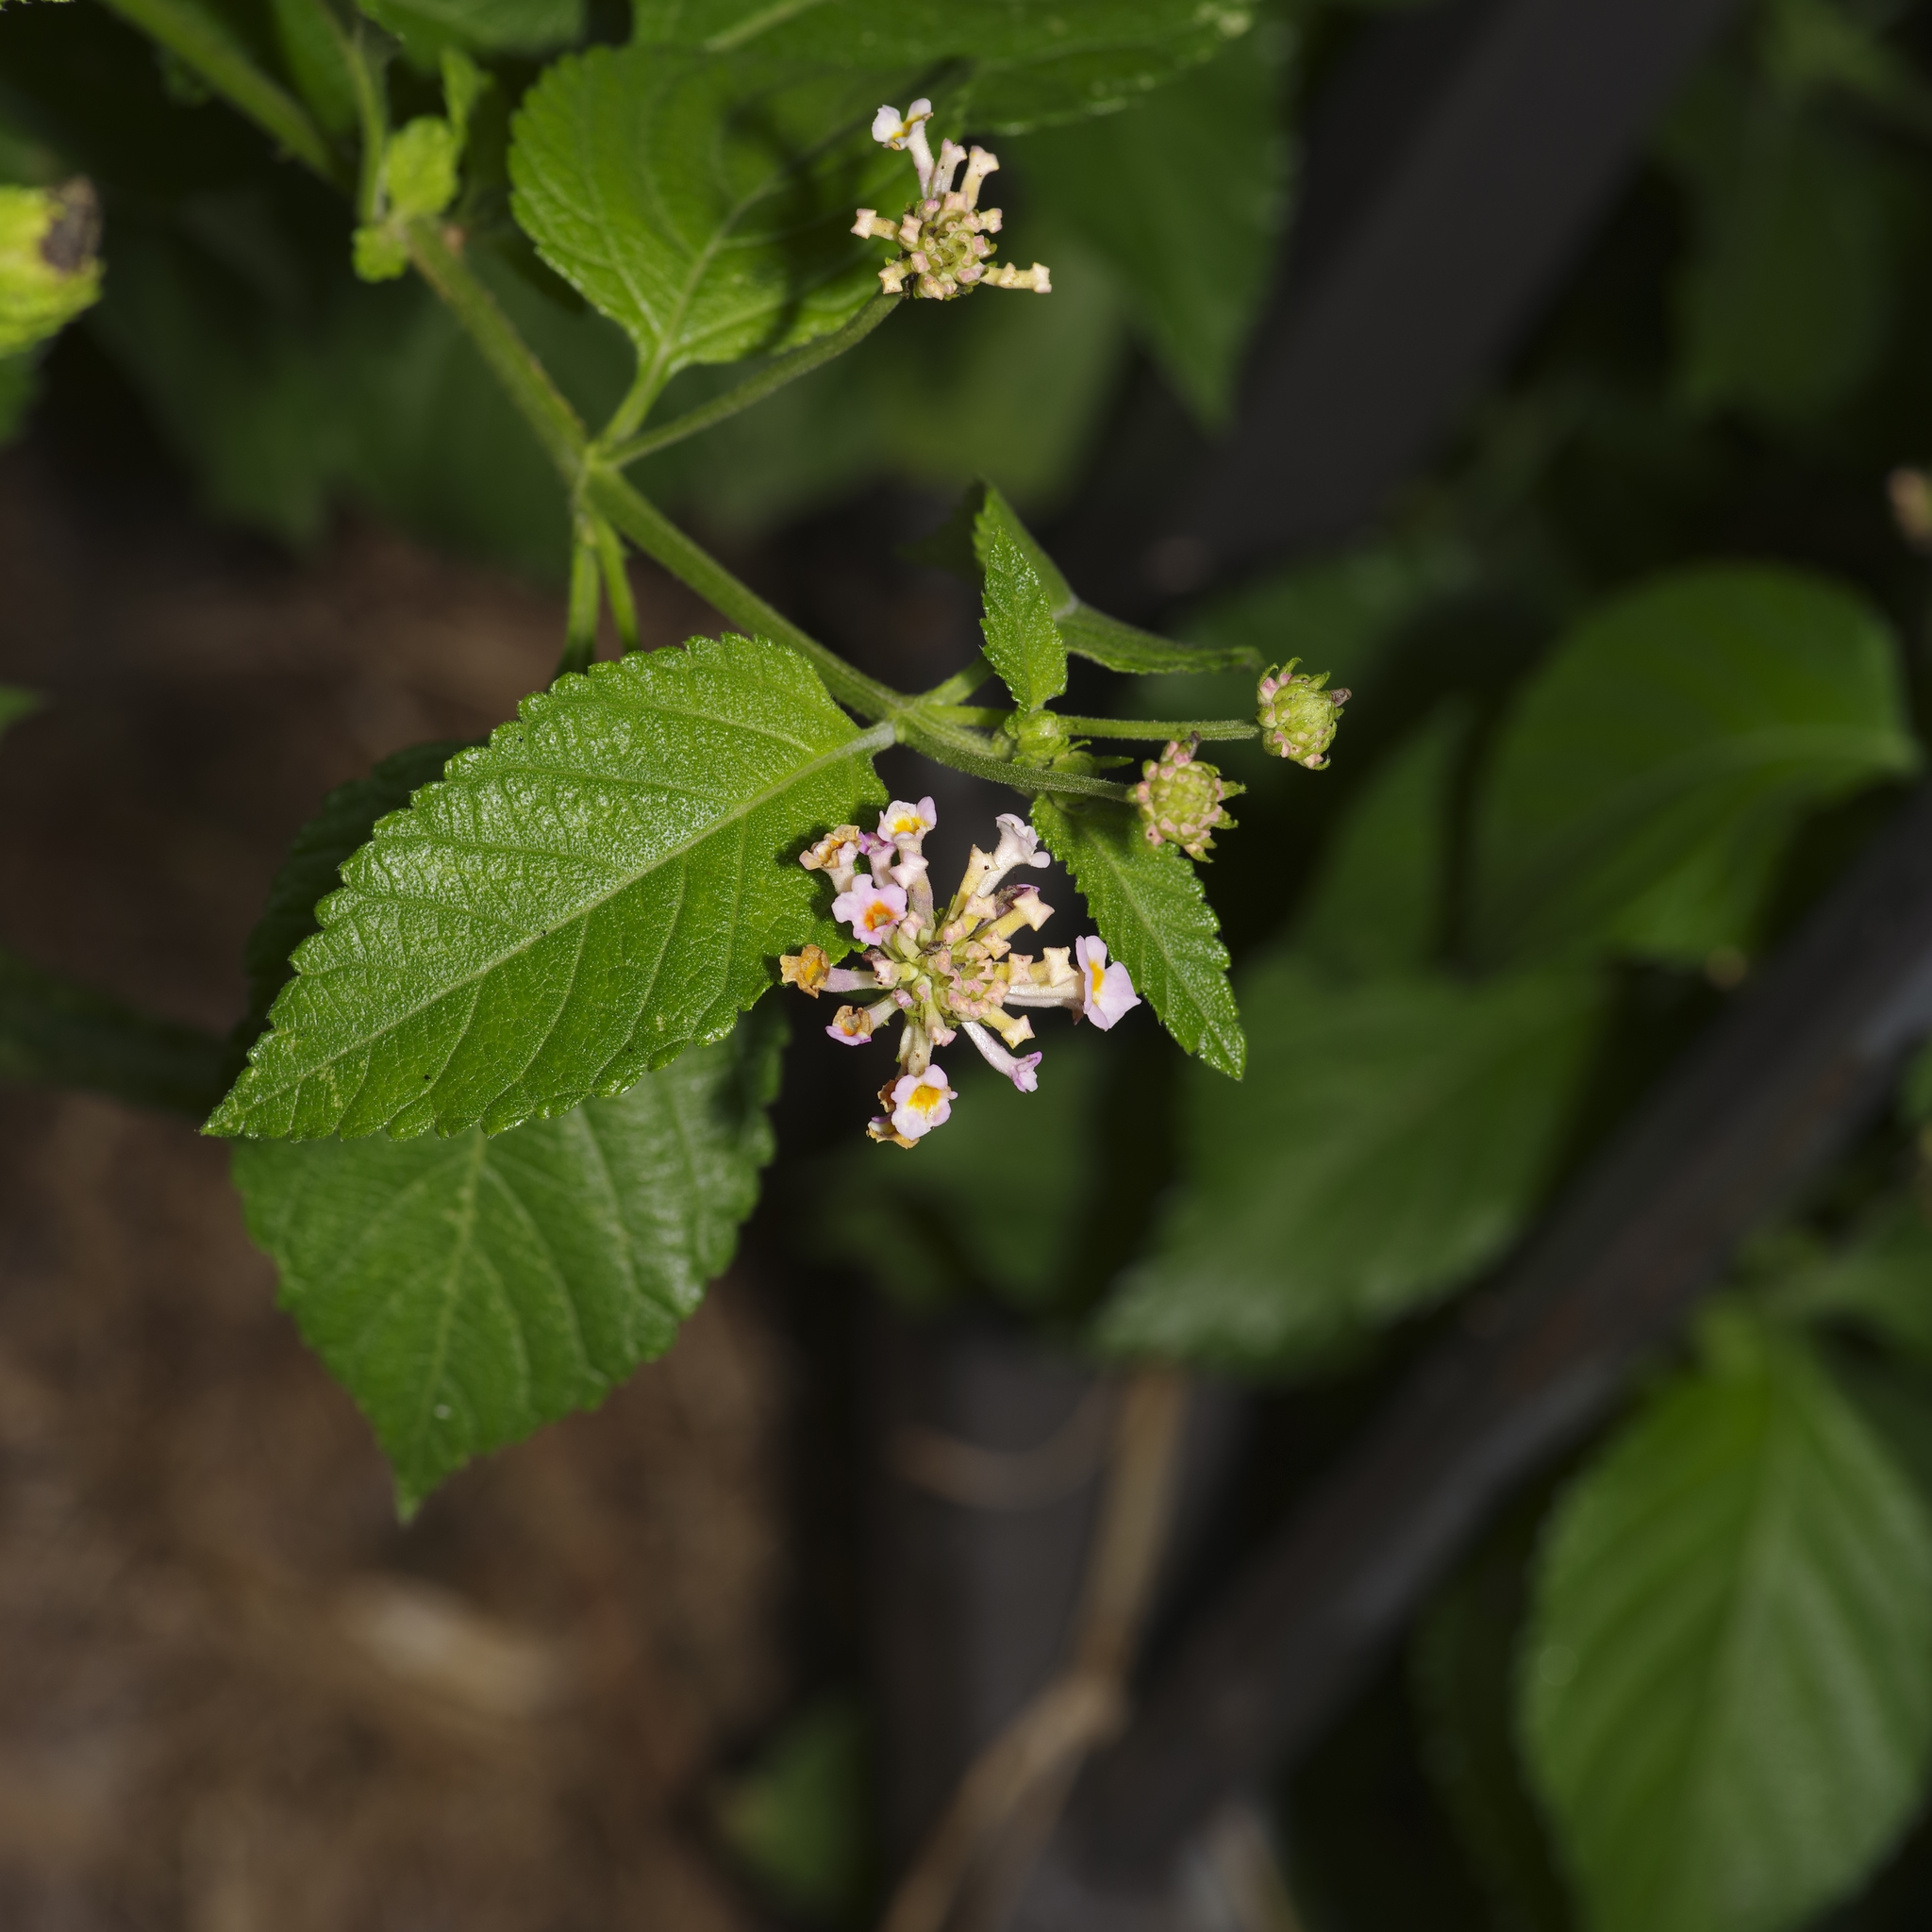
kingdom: Plantae
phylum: Tracheophyta
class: Magnoliopsida
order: Lamiales
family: Verbenaceae
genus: Lantana
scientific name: Lantana strigocamara
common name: Lantana
